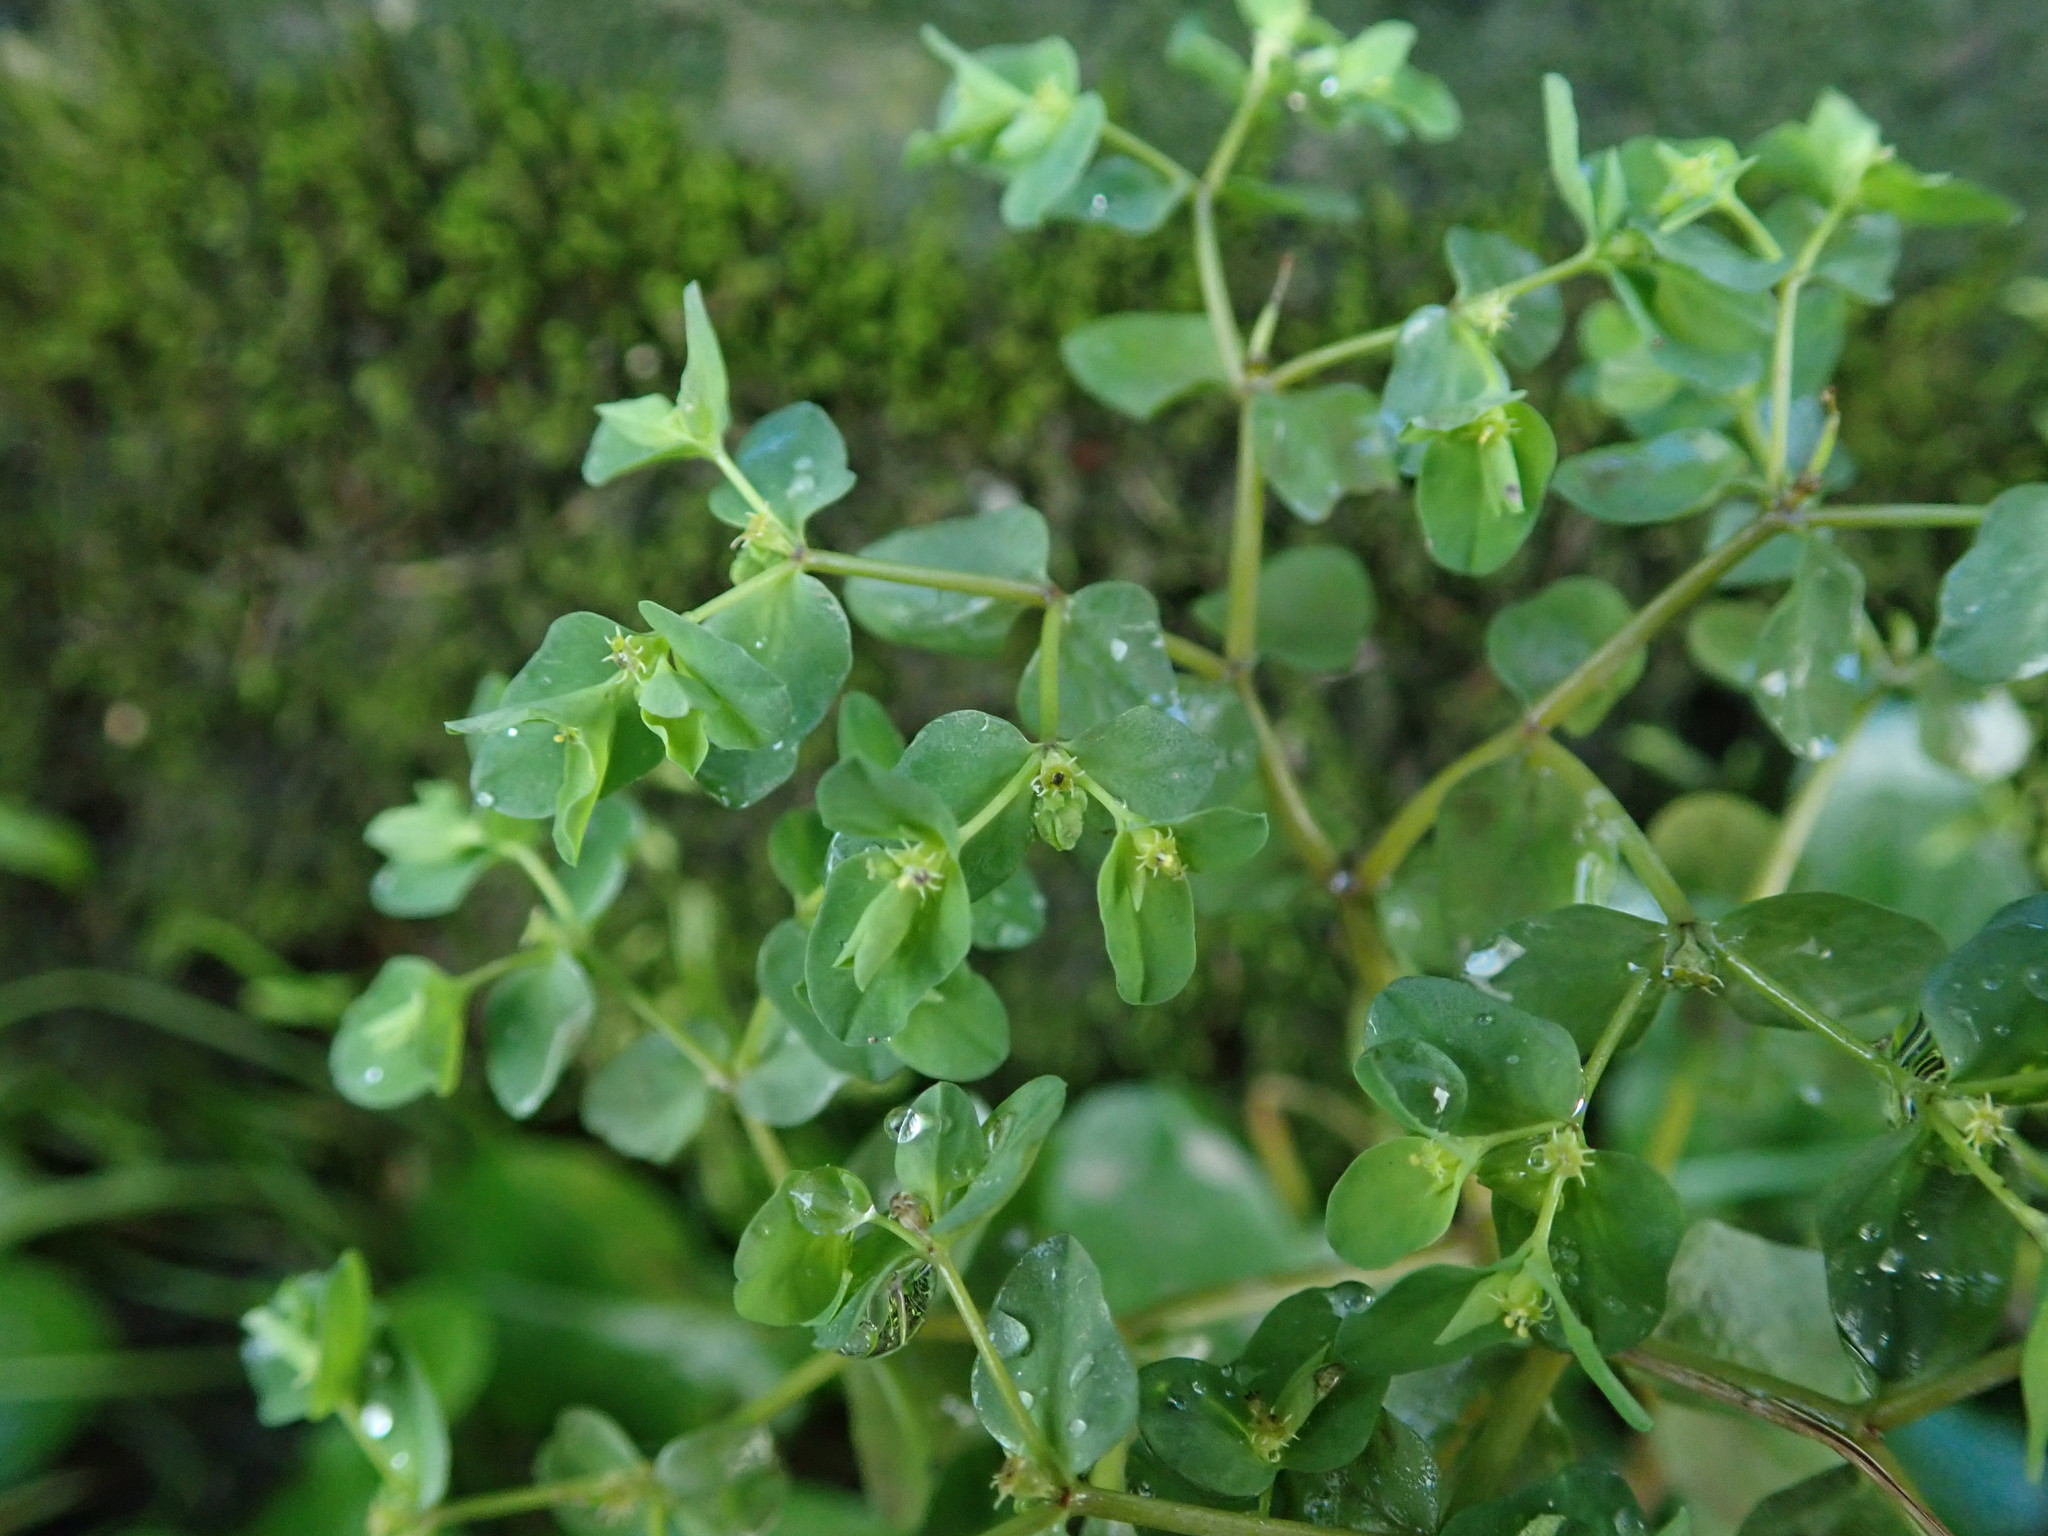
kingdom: Plantae
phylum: Tracheophyta
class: Magnoliopsida
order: Malpighiales
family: Euphorbiaceae
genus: Euphorbia
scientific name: Euphorbia peplus
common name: Petty spurge
